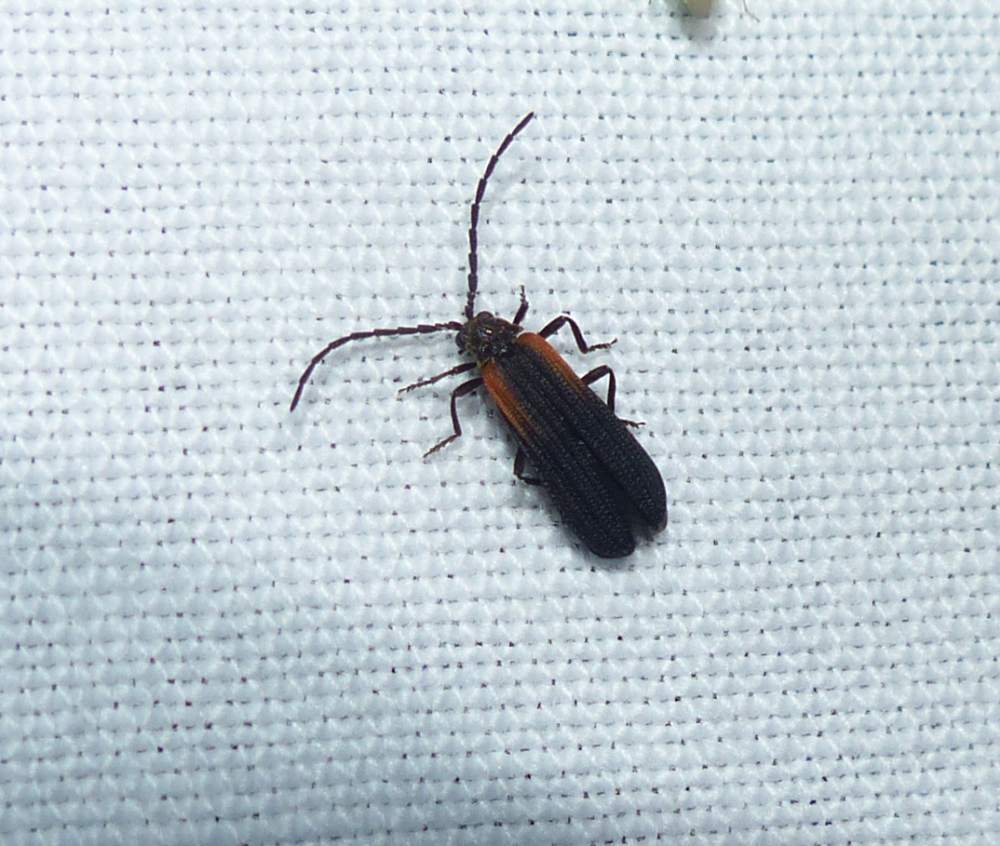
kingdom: Animalia
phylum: Arthropoda
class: Insecta
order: Coleoptera
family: Lycidae
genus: Greenarus
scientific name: Greenarus thoracicus
